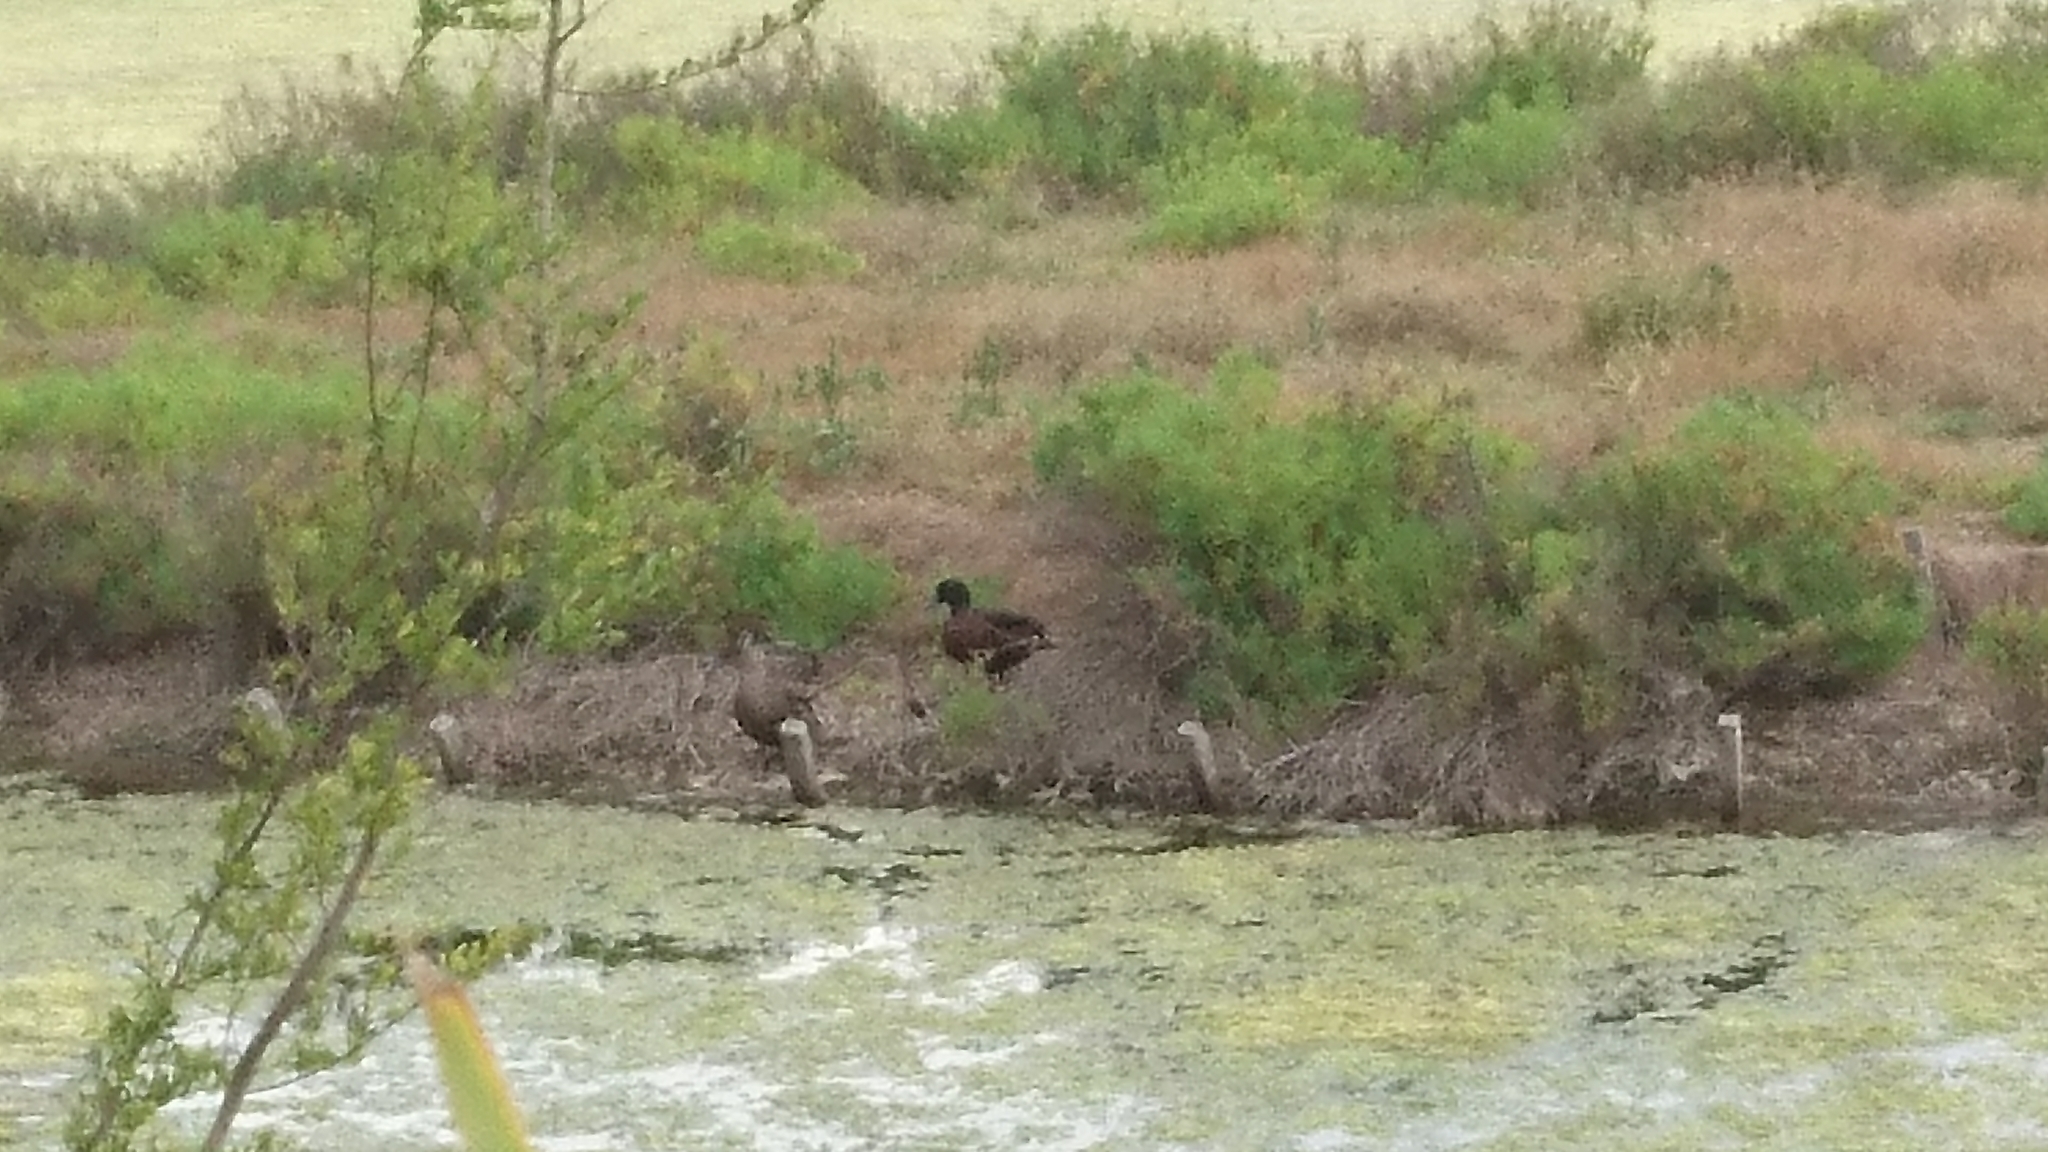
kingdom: Animalia
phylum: Chordata
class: Aves
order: Anseriformes
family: Anatidae
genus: Anas
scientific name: Anas castanea
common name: Chestnut teal
